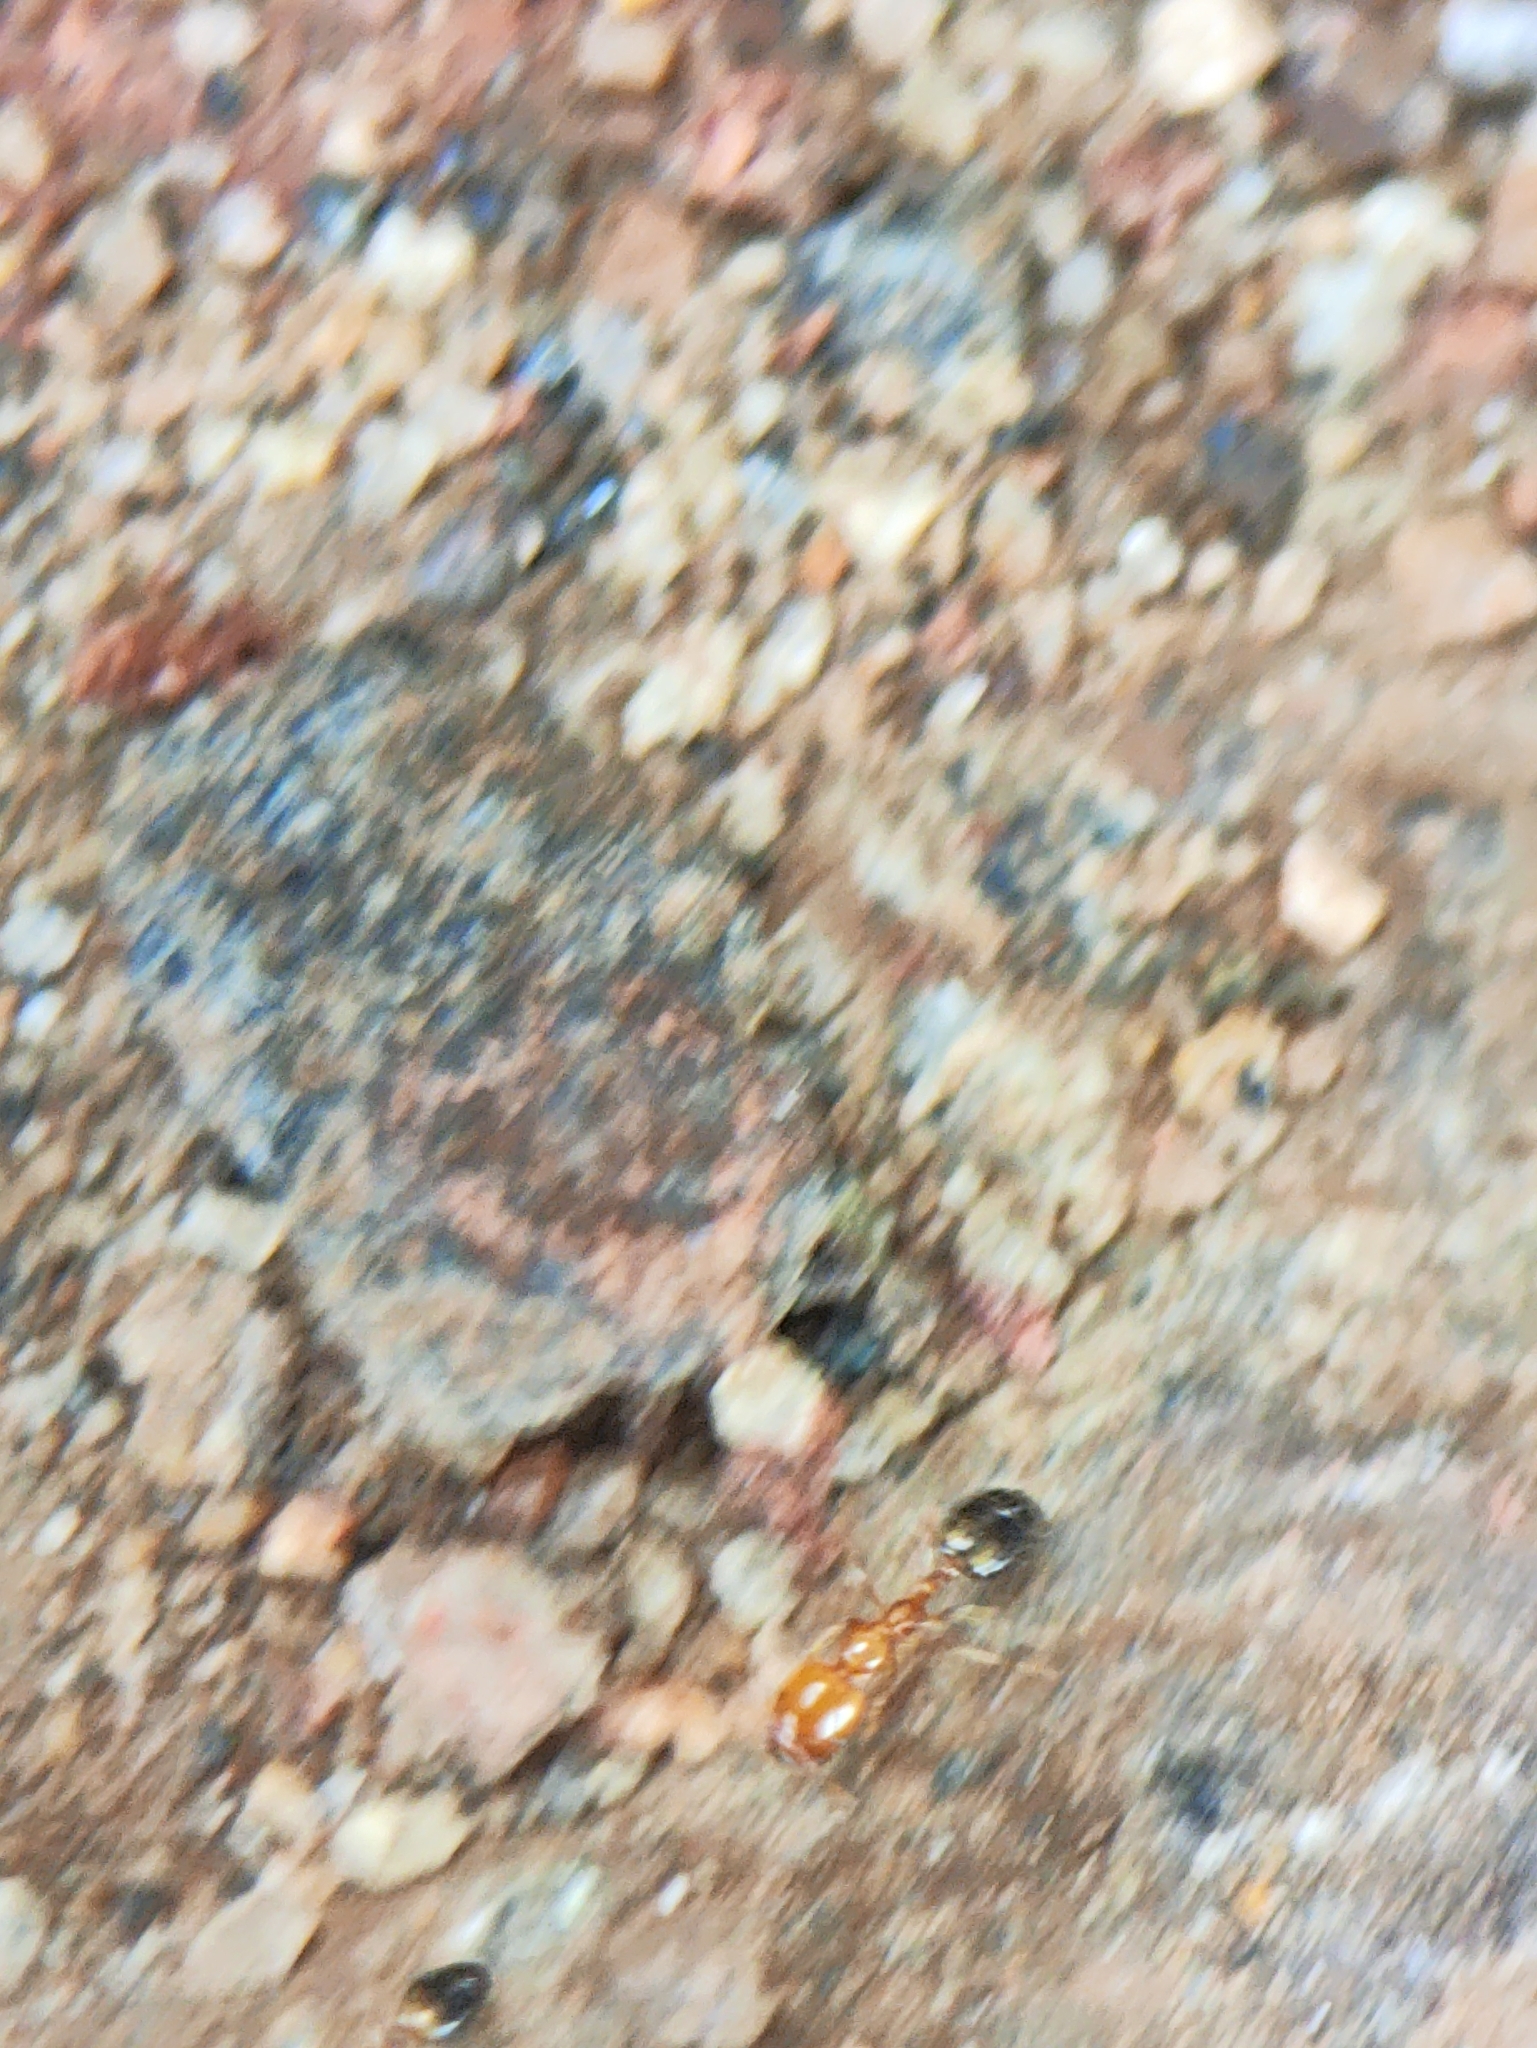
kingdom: Animalia
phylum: Arthropoda
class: Insecta
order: Hymenoptera
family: Formicidae
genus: Monomorium
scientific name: Monomorium destructor
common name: Destructive trailing ant
